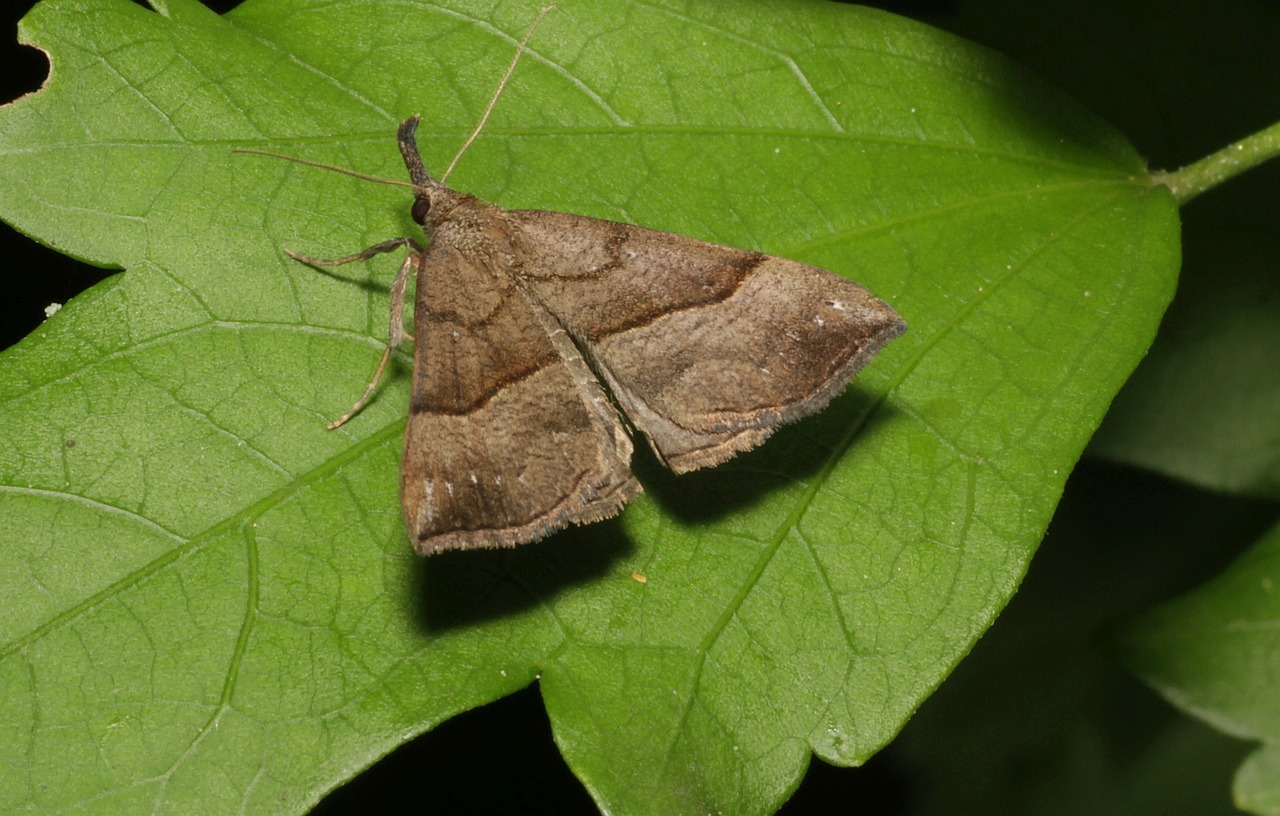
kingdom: Animalia
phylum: Arthropoda
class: Insecta
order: Lepidoptera
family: Erebidae
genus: Hypena
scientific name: Hypena proboscidalis
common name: Snout
